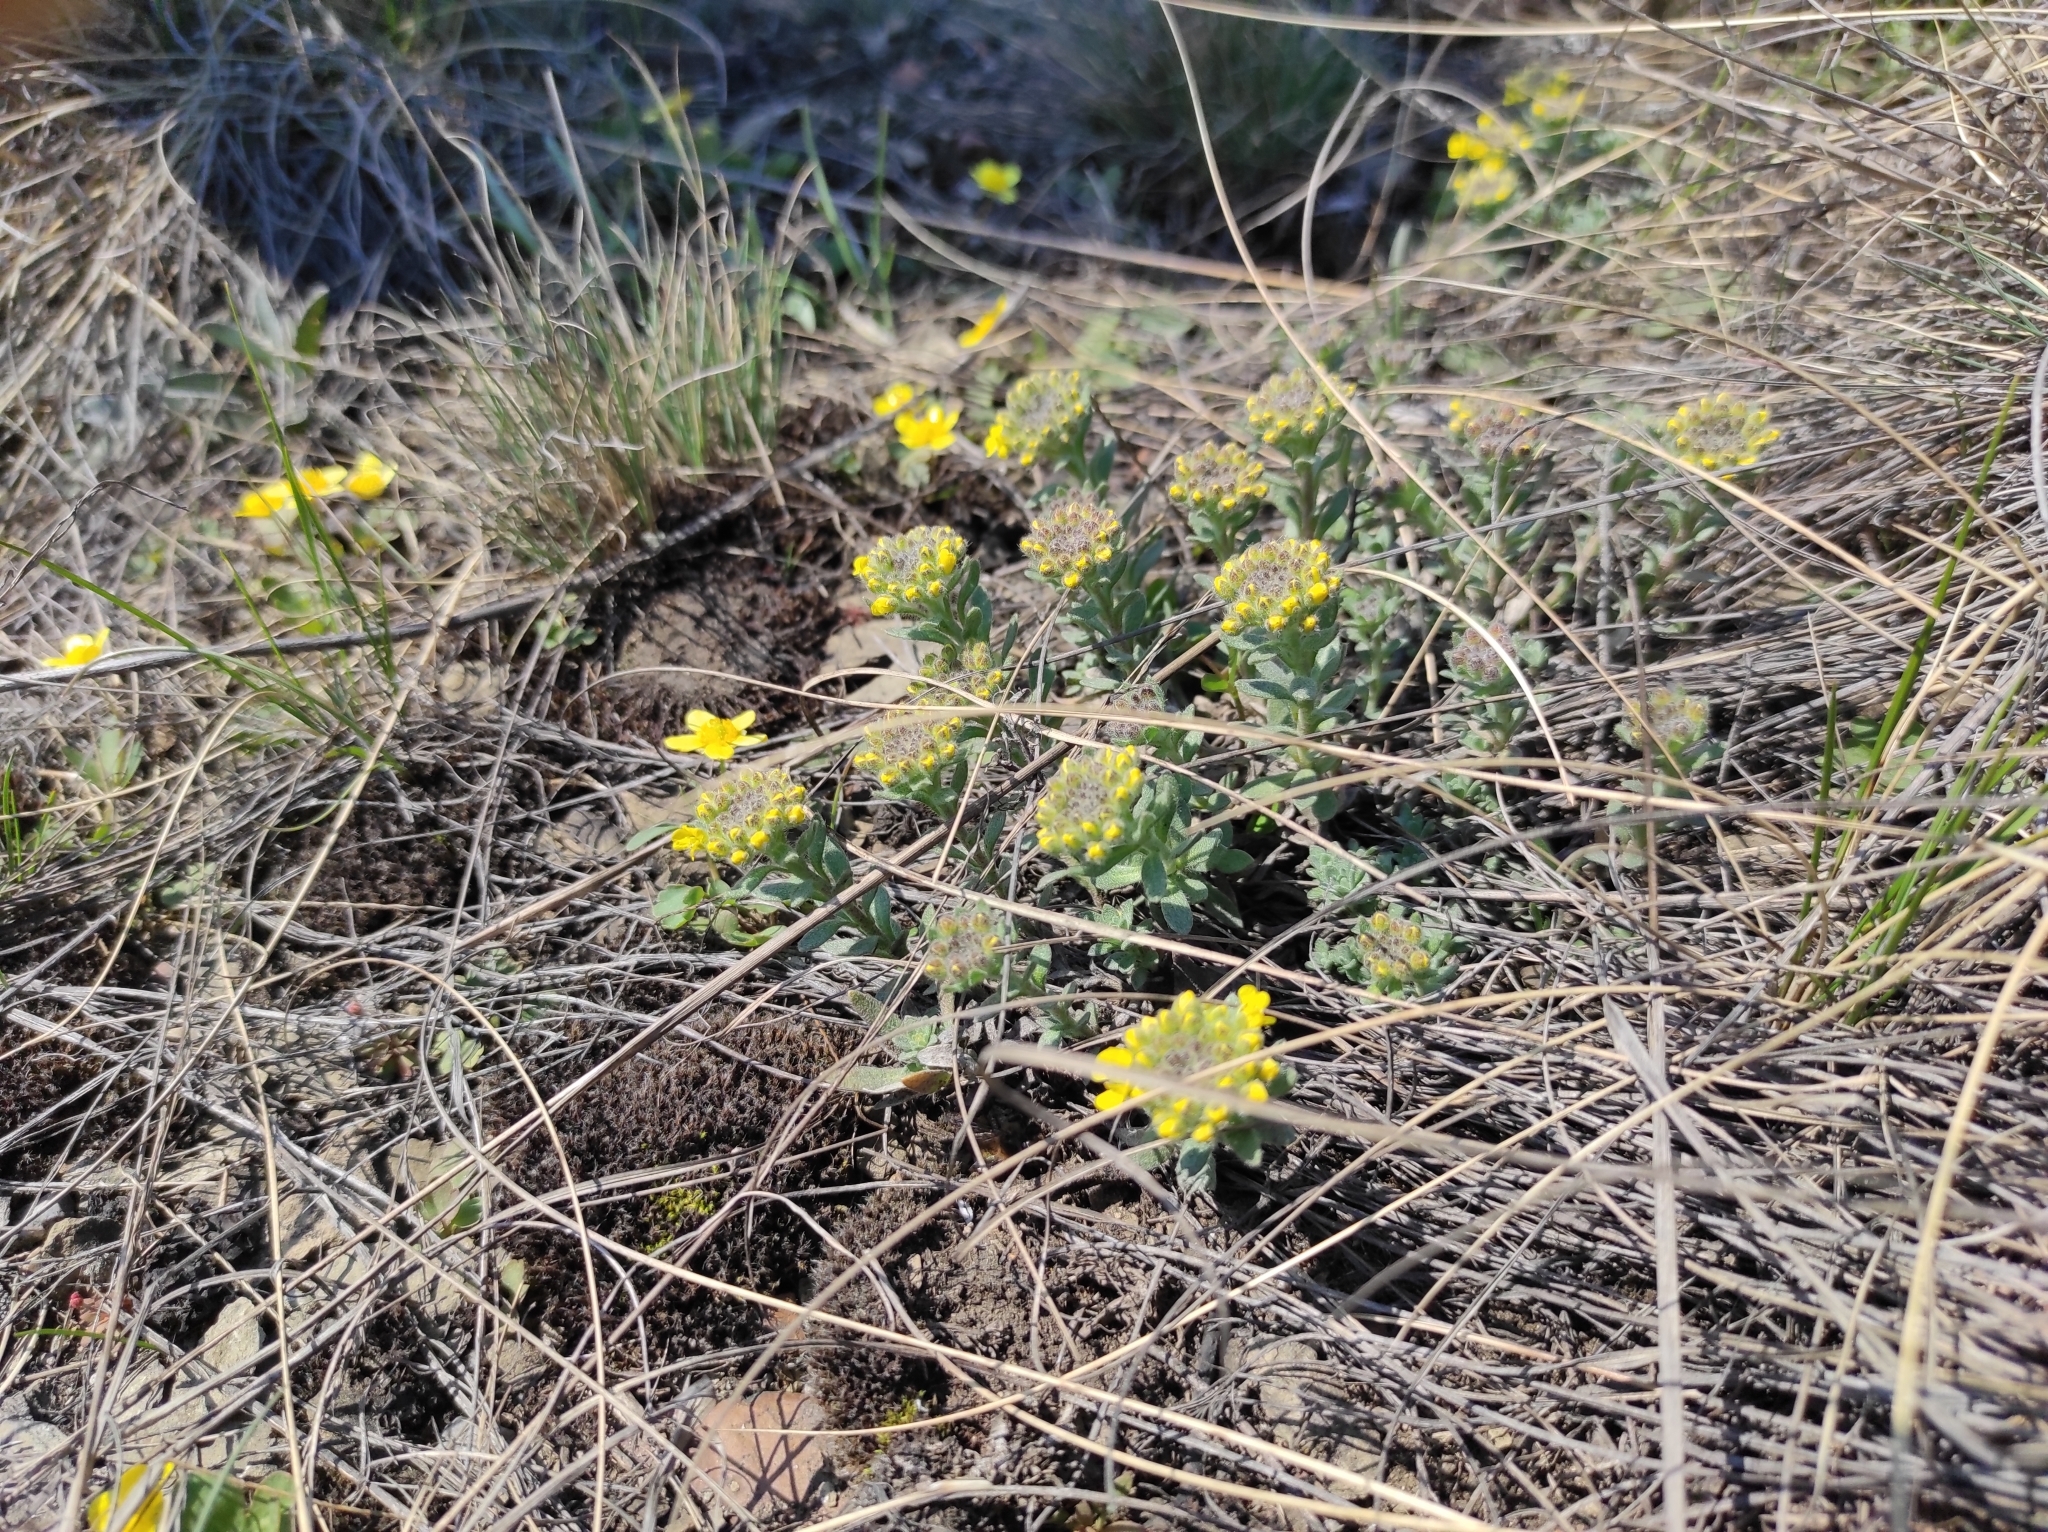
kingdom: Plantae
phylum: Tracheophyta
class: Magnoliopsida
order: Brassicales
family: Brassicaceae
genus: Alyssum
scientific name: Alyssum lenense
